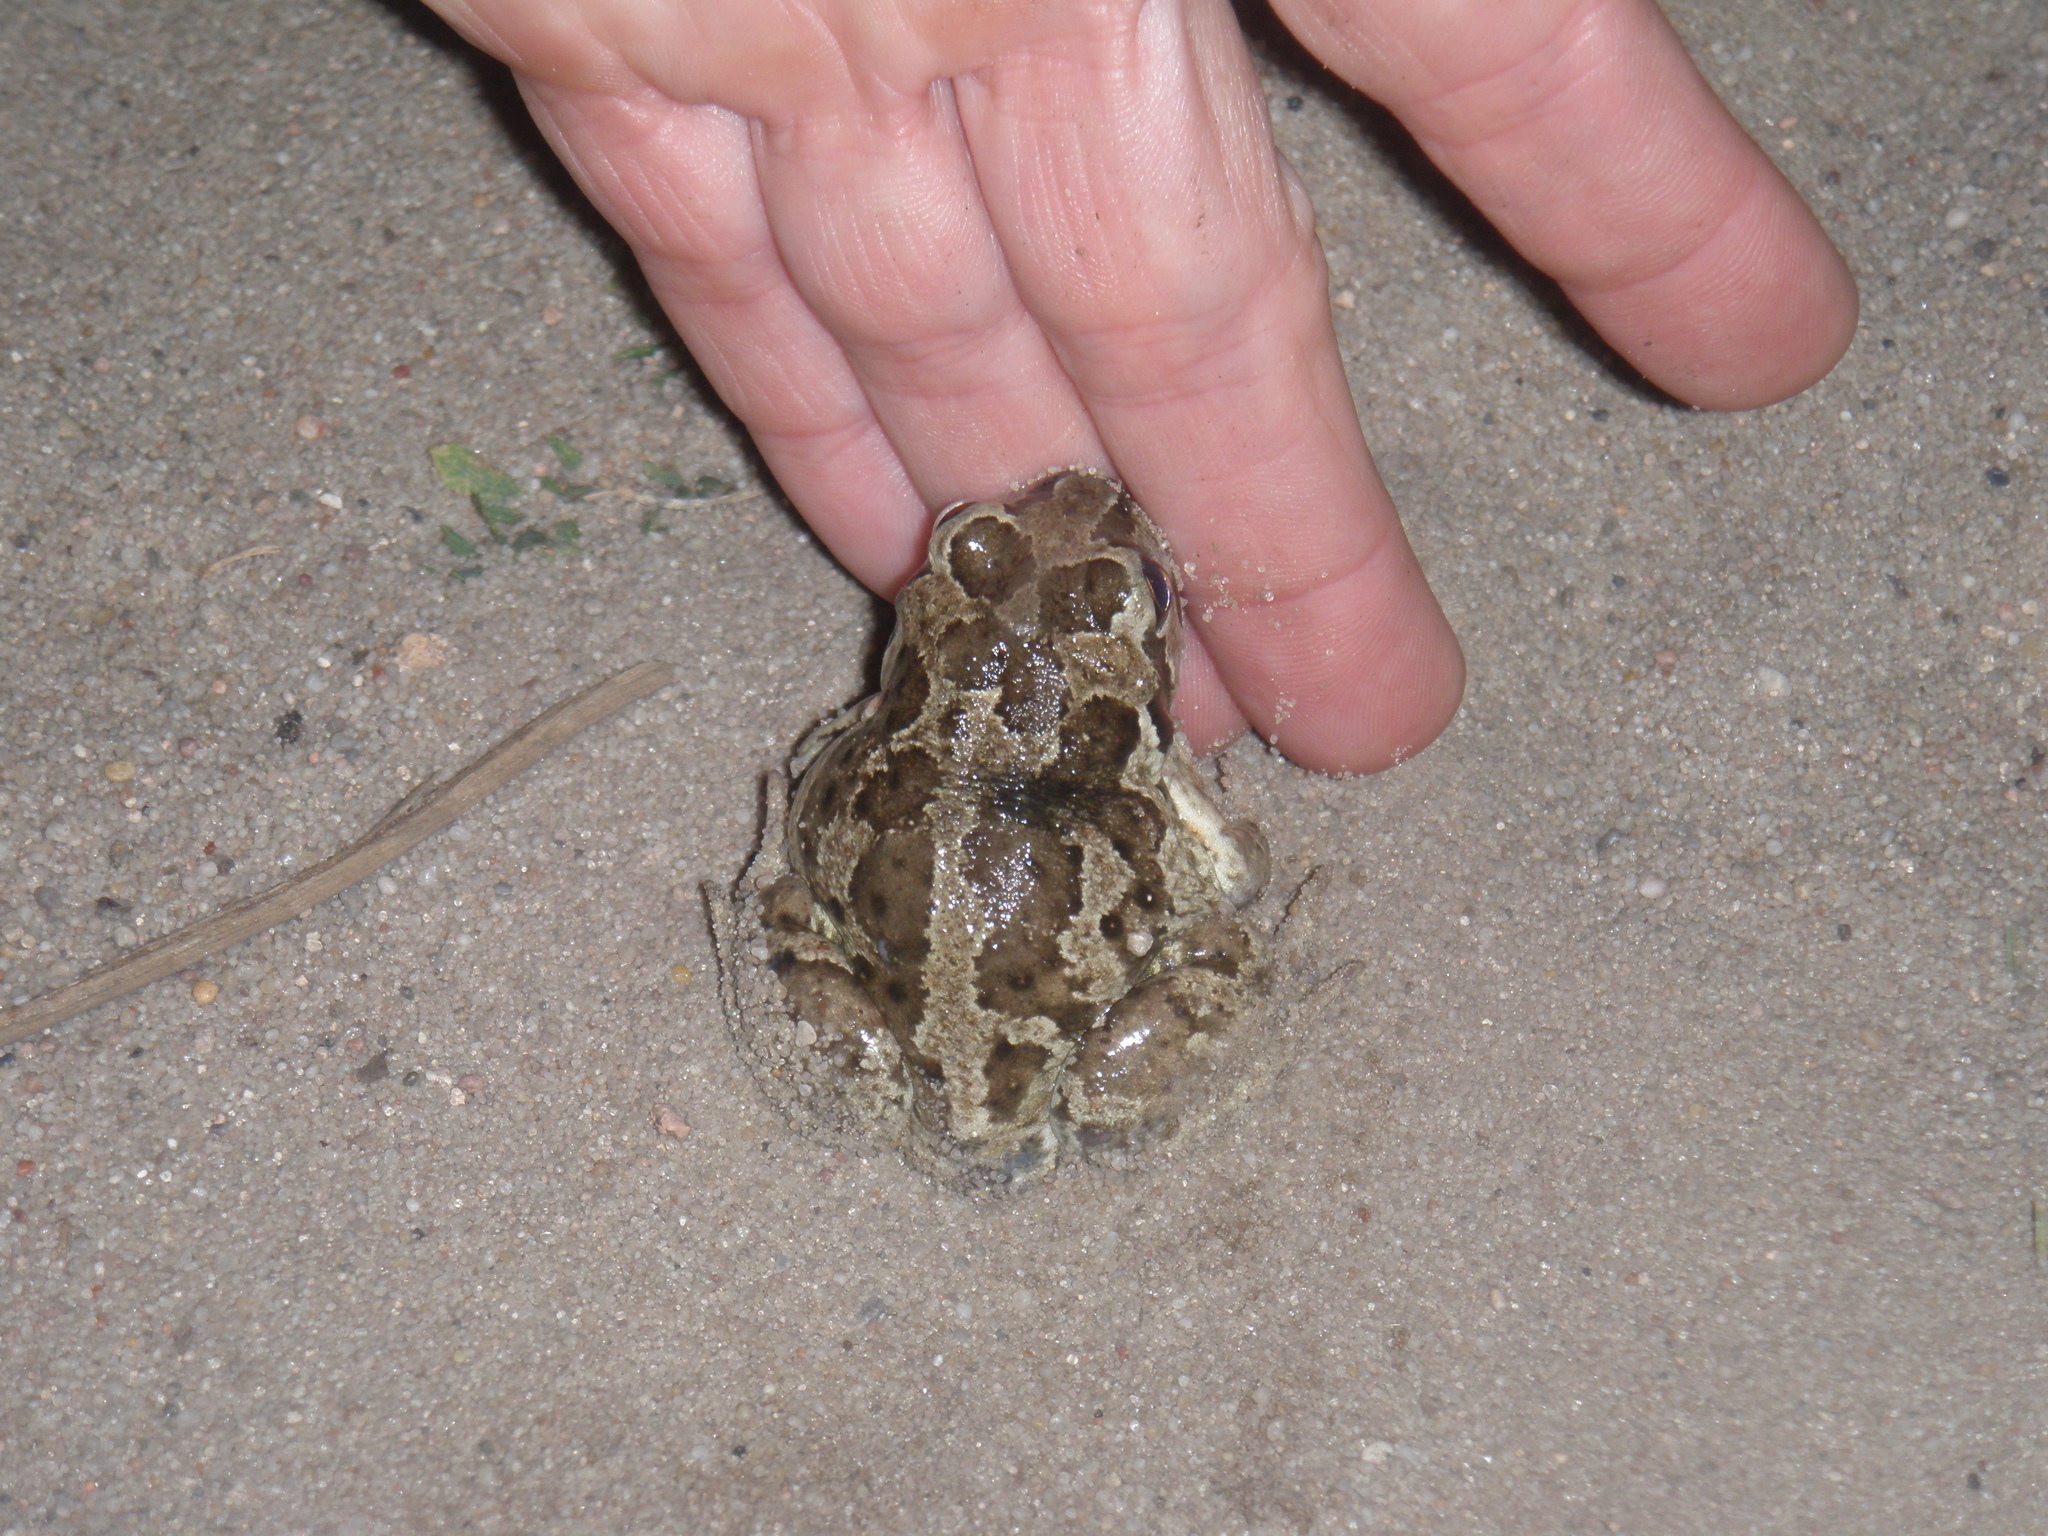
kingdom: Animalia
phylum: Chordata
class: Amphibia
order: Anura
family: Pelobatidae
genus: Pelobates
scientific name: Pelobates fuscus
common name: Common eurasian spadefoot toad
